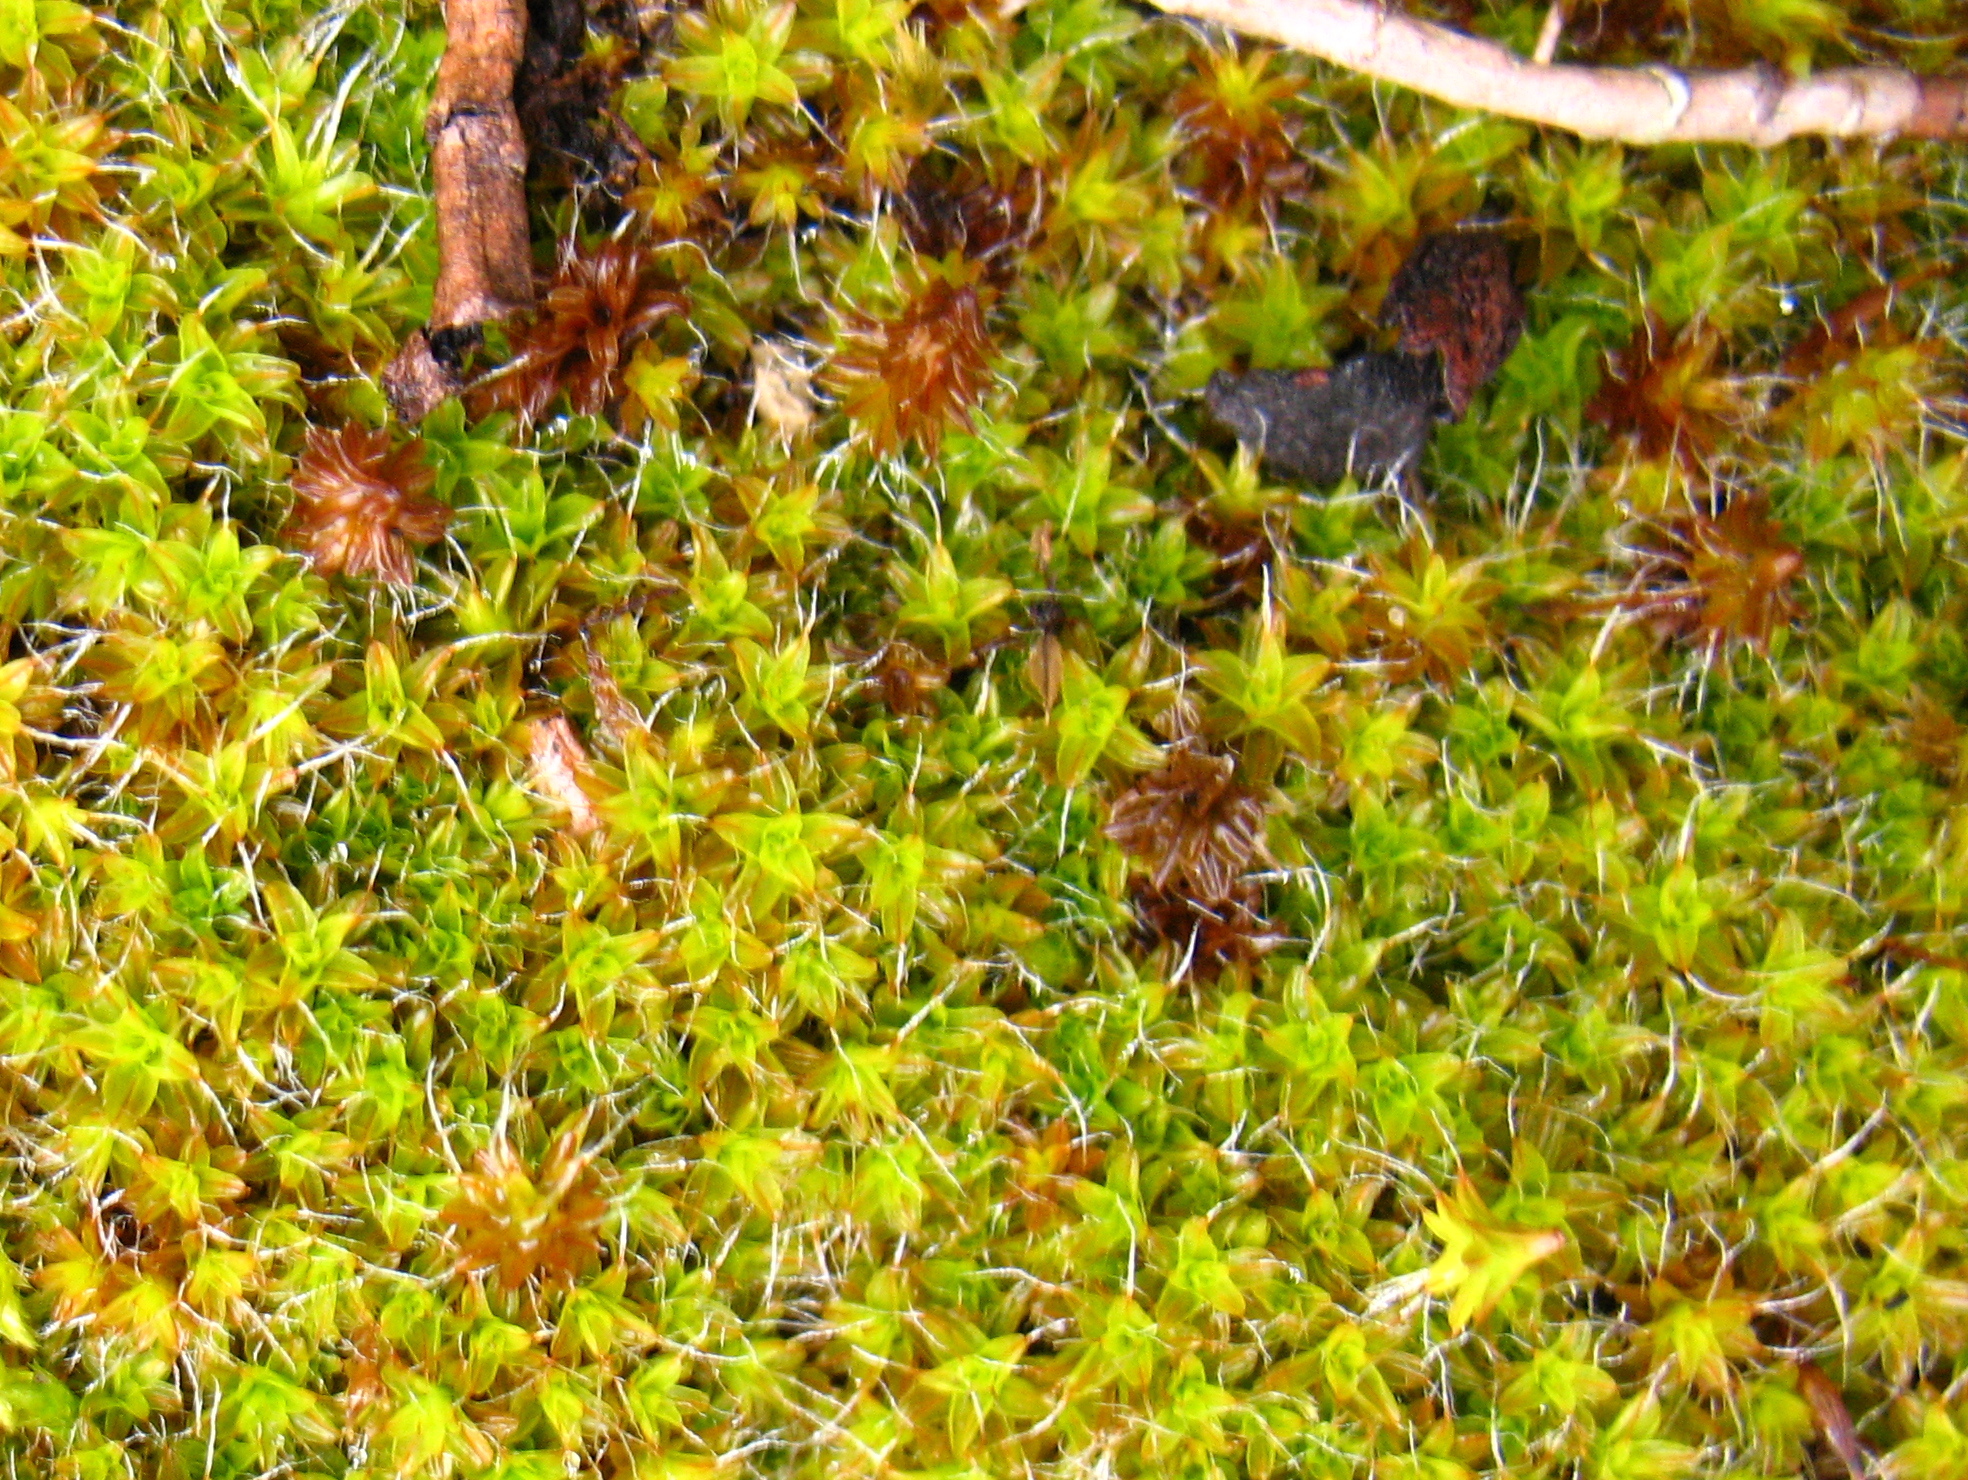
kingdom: Plantae
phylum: Bryophyta
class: Bryopsida
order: Pottiales
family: Pottiaceae
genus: Syntrichia
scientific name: Syntrichia ruralis
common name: Sidewalk screw moss
